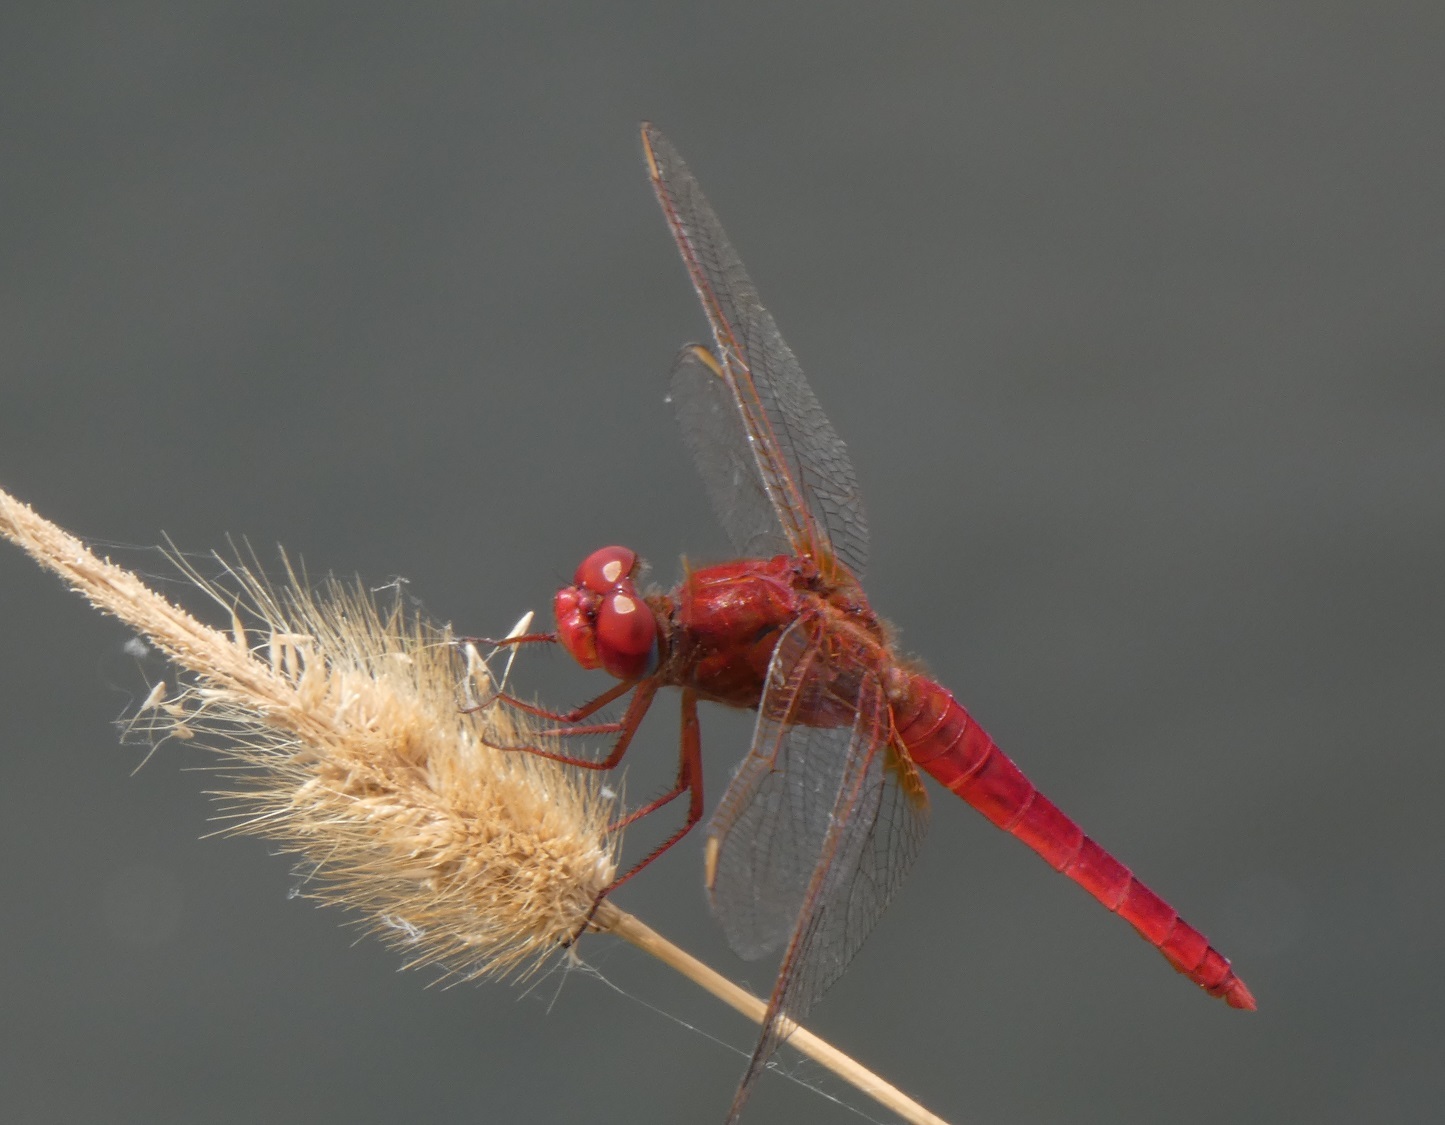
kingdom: Animalia
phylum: Arthropoda
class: Insecta
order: Odonata
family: Libellulidae
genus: Crocothemis
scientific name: Crocothemis erythraea
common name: Scarlet dragonfly
